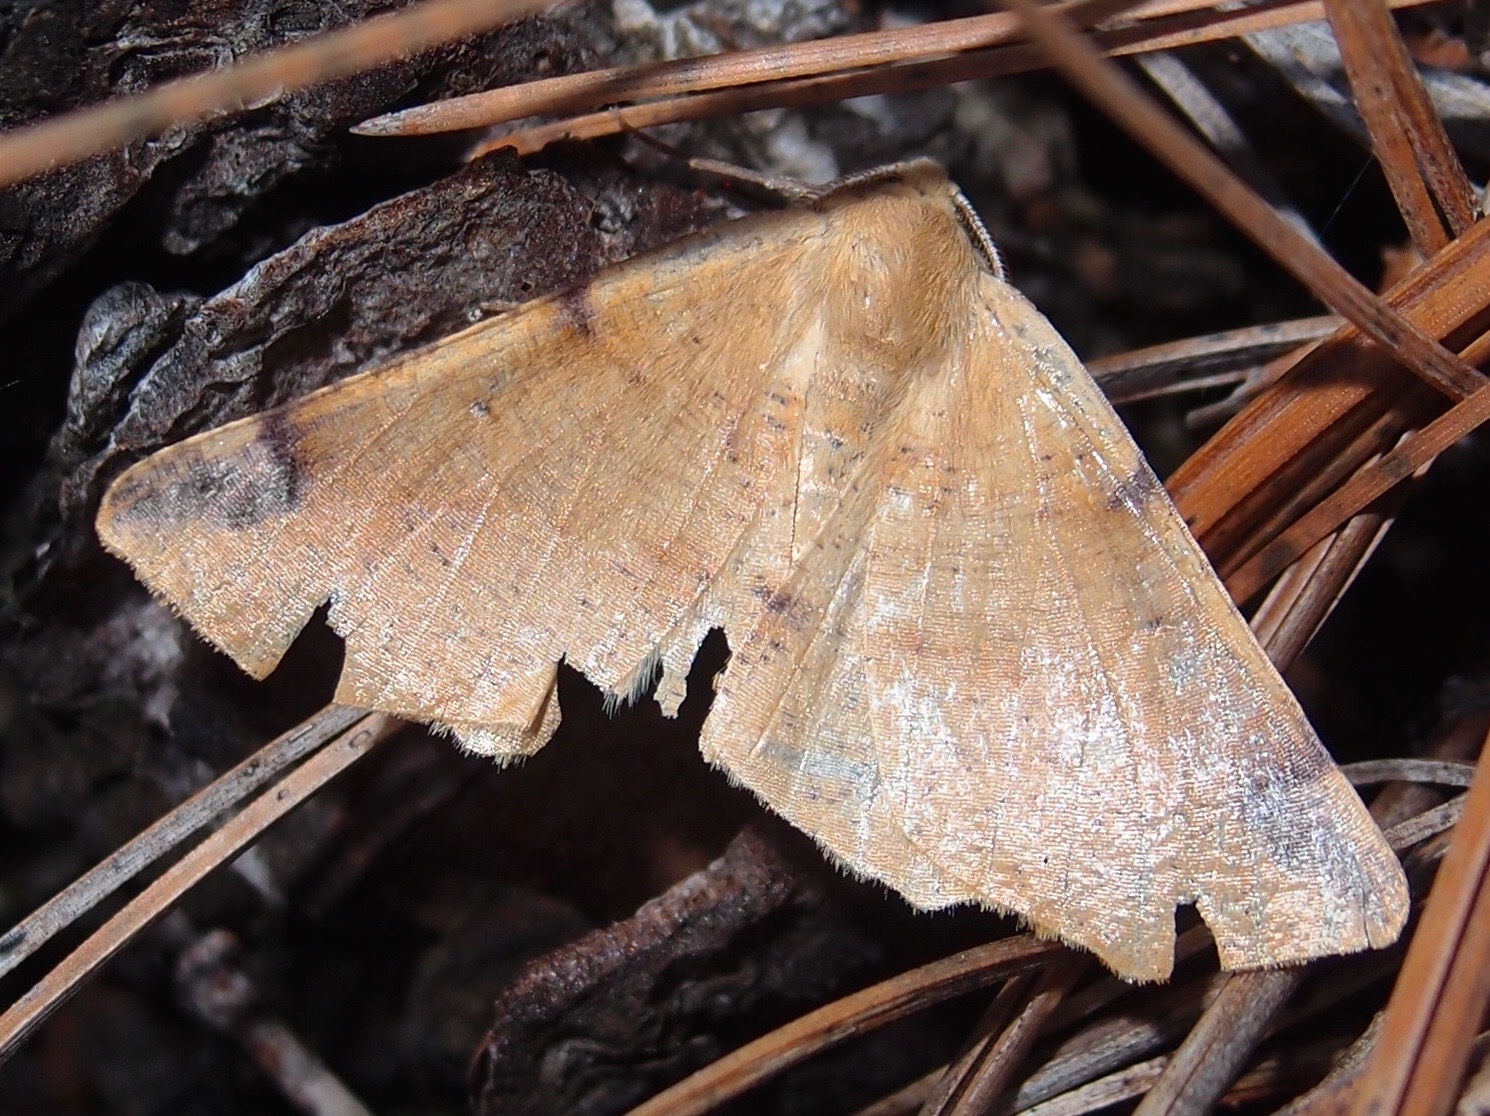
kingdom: Animalia
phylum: Arthropoda
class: Insecta
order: Lepidoptera
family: Geometridae
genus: Synaxis
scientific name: Synaxis triangulata
